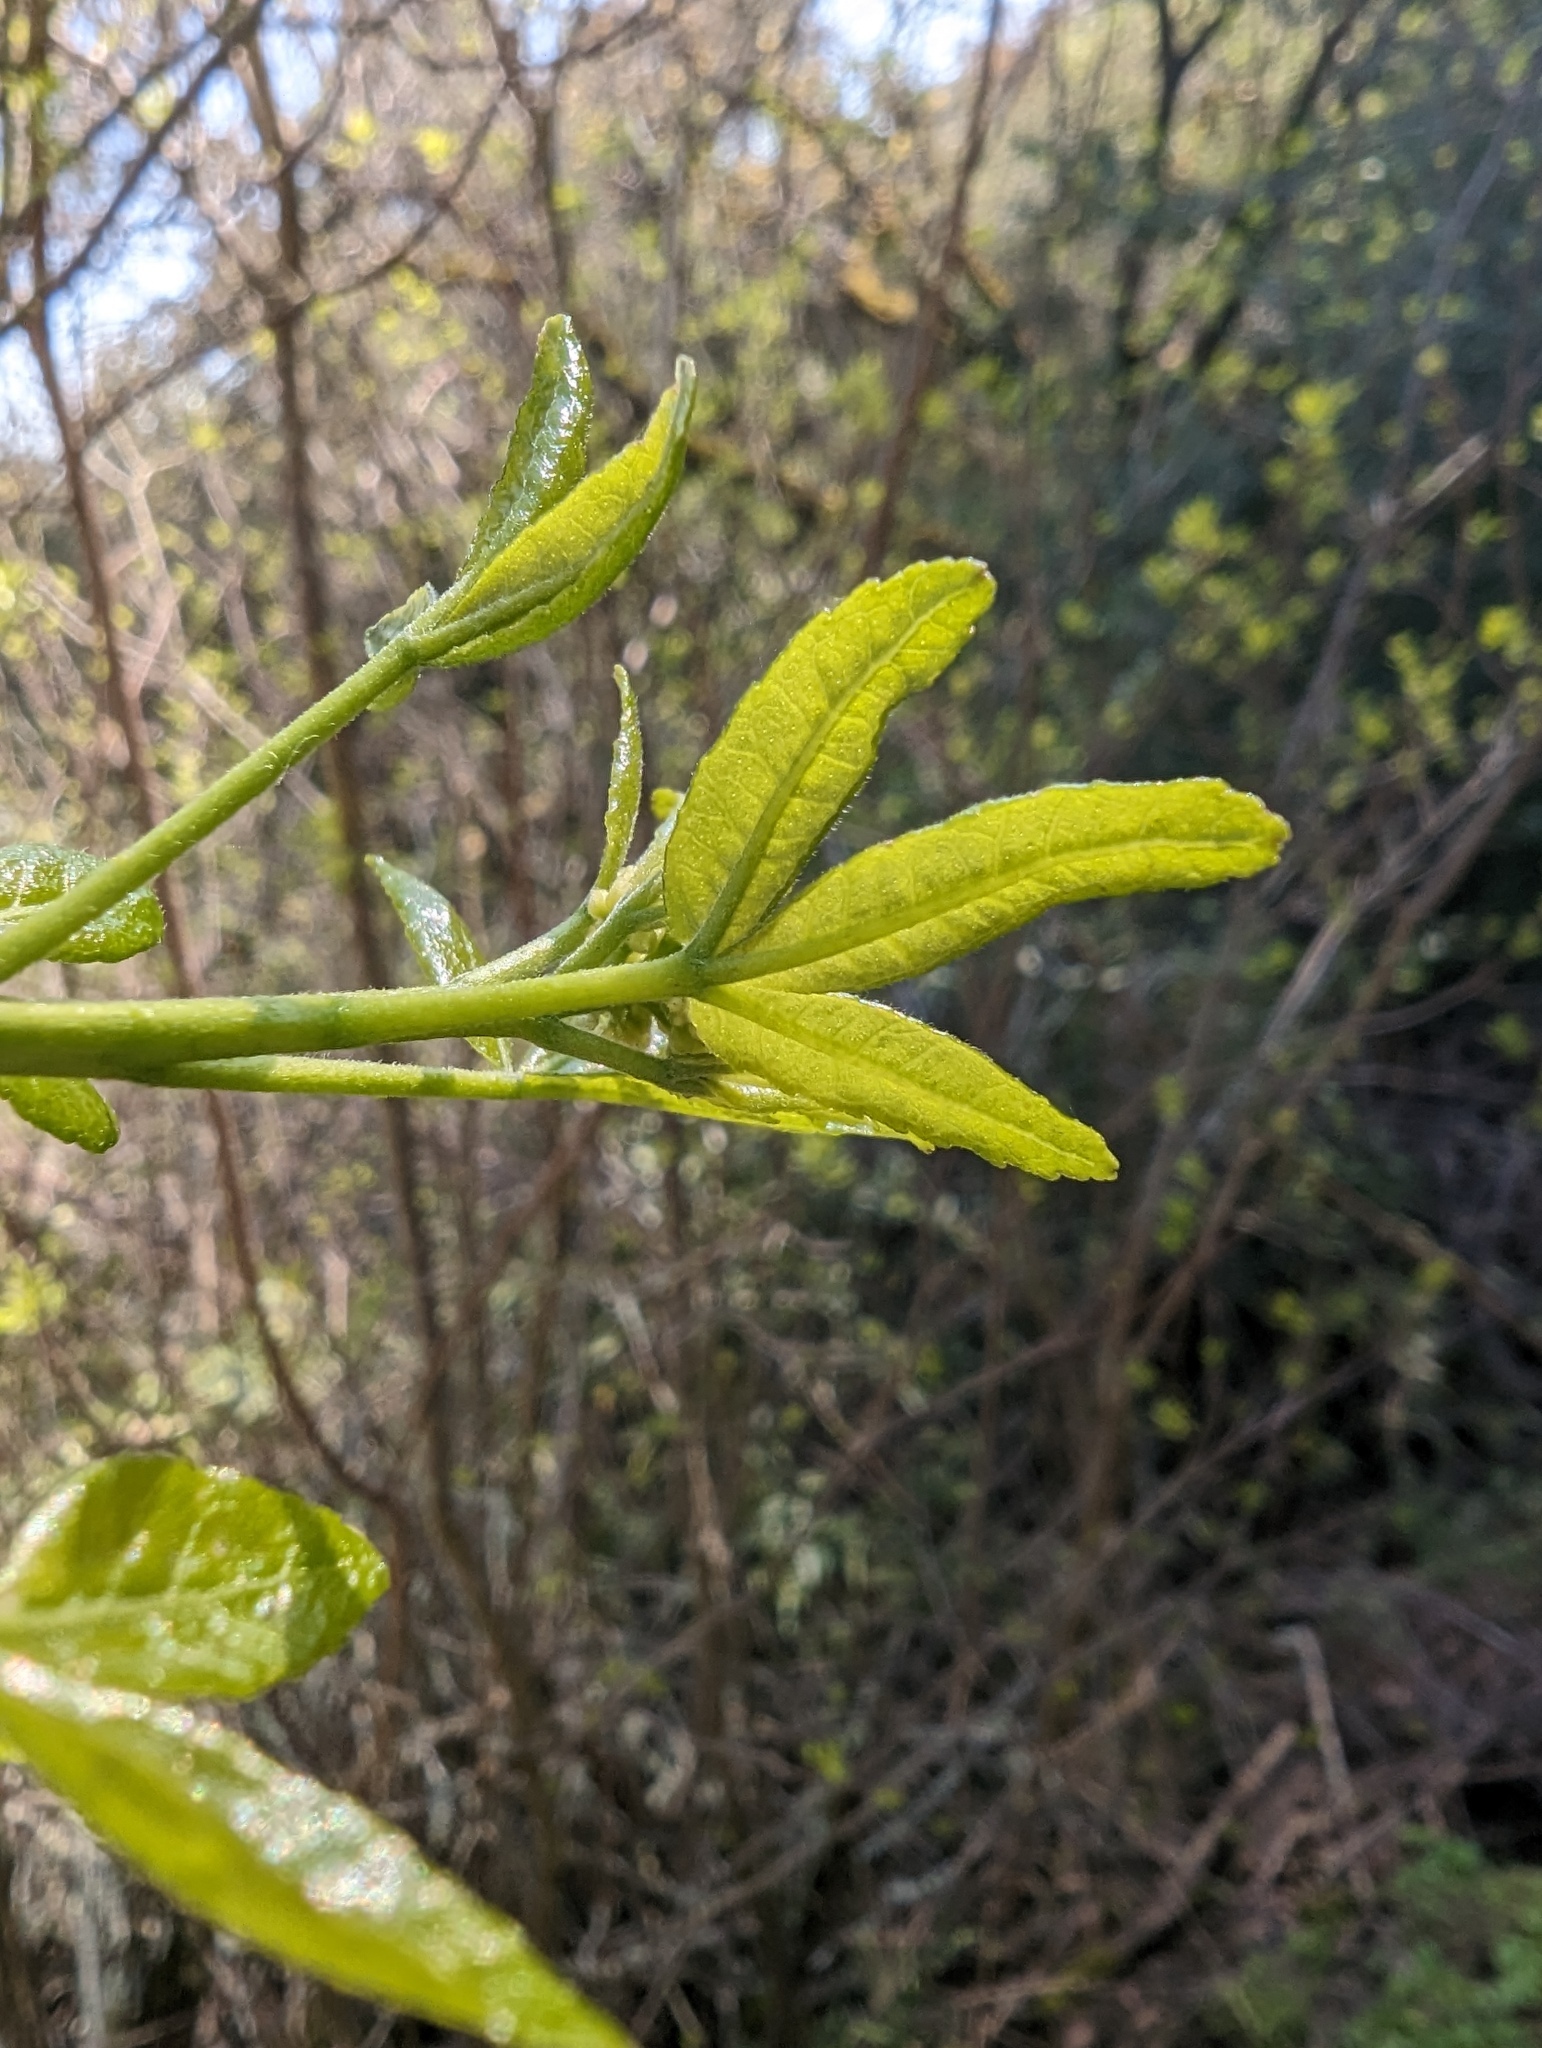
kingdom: Plantae
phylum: Tracheophyta
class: Magnoliopsida
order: Sapindales
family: Rutaceae
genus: Ptelea
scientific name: Ptelea crenulata
